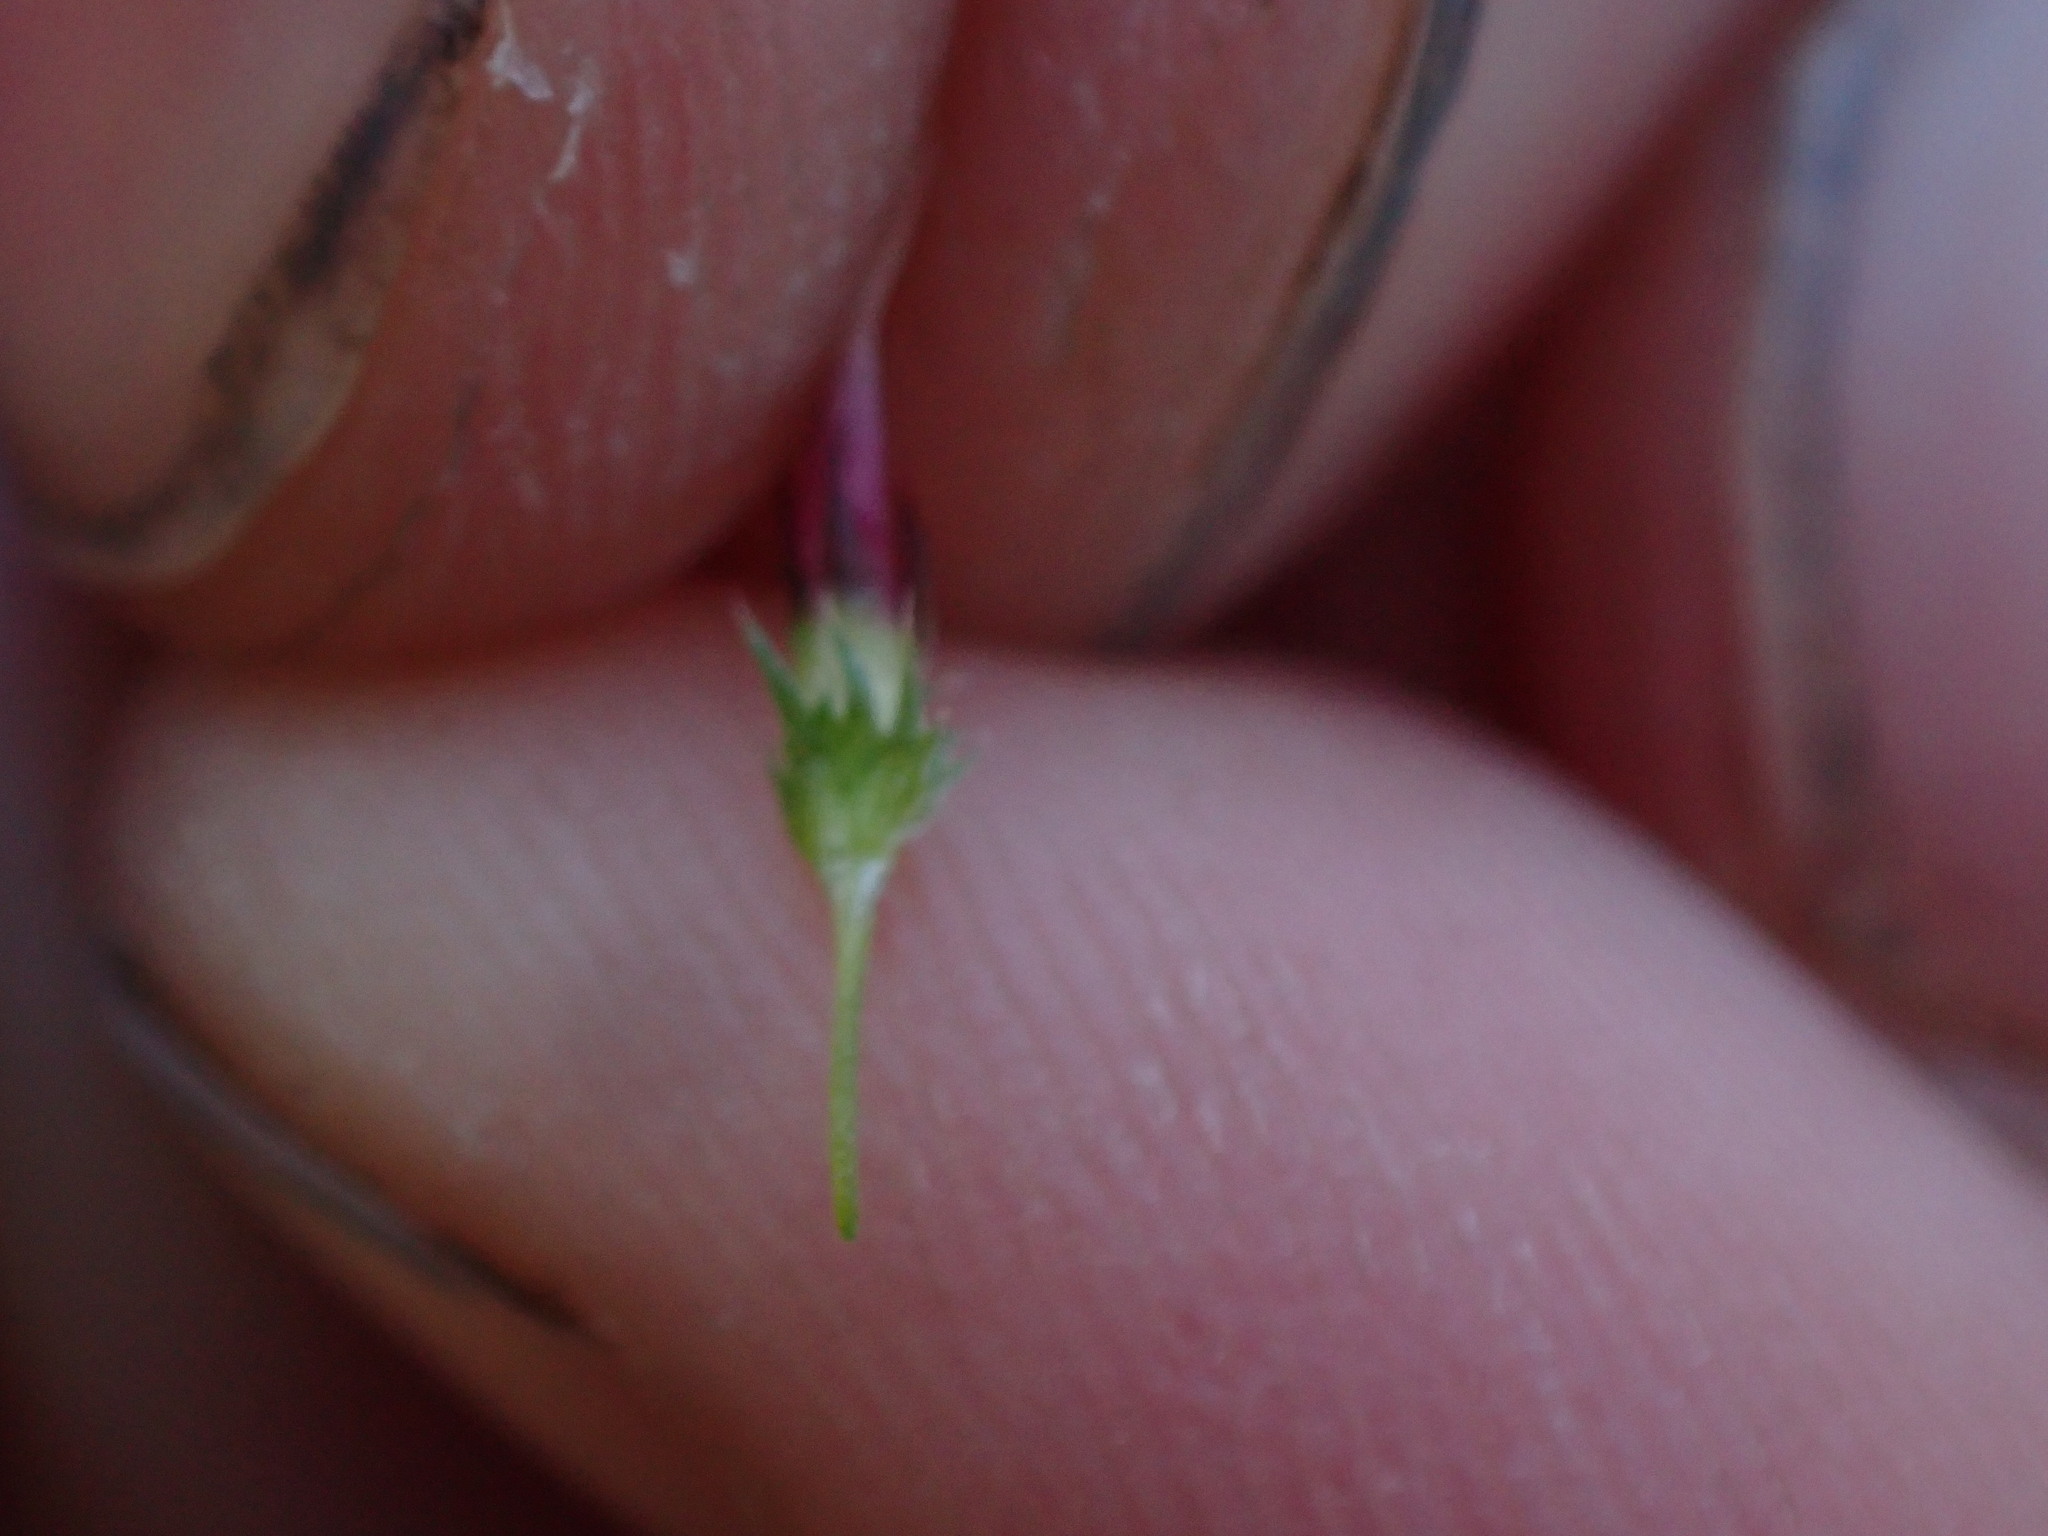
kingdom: Plantae
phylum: Tracheophyta
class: Magnoliopsida
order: Fabales
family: Fabaceae
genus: Trifolium
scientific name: Trifolium variegatum
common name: Whitetip clover
